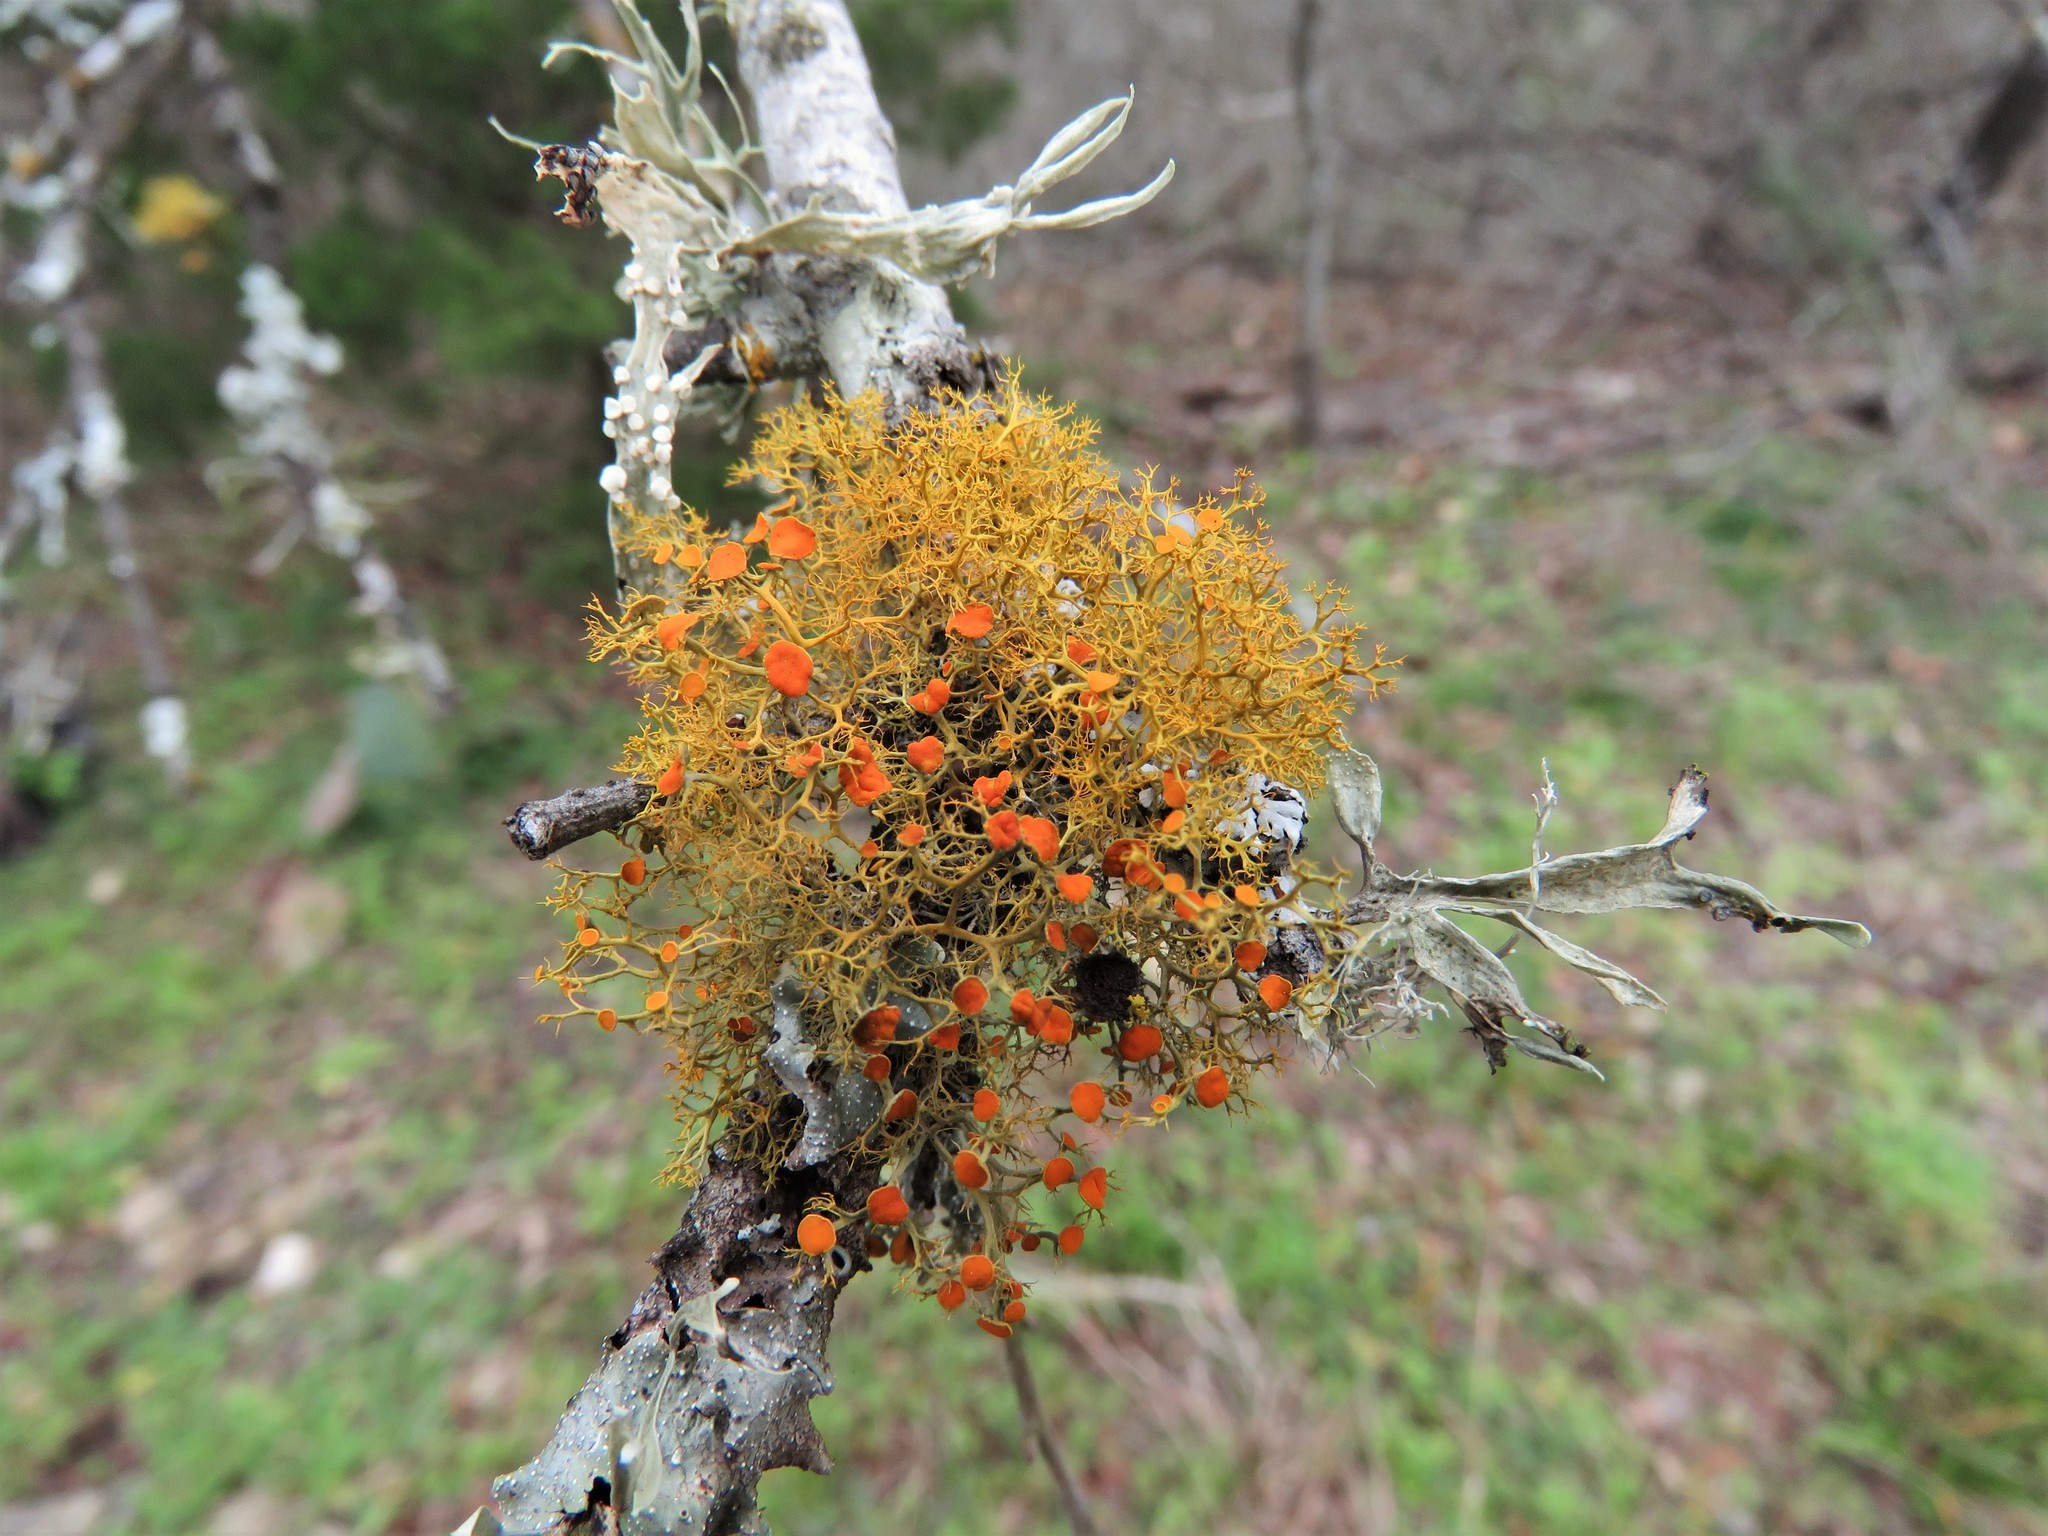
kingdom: Fungi
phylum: Ascomycota
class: Lecanoromycetes
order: Teloschistales
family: Teloschistaceae
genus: Teloschistes
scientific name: Teloschistes exilis
